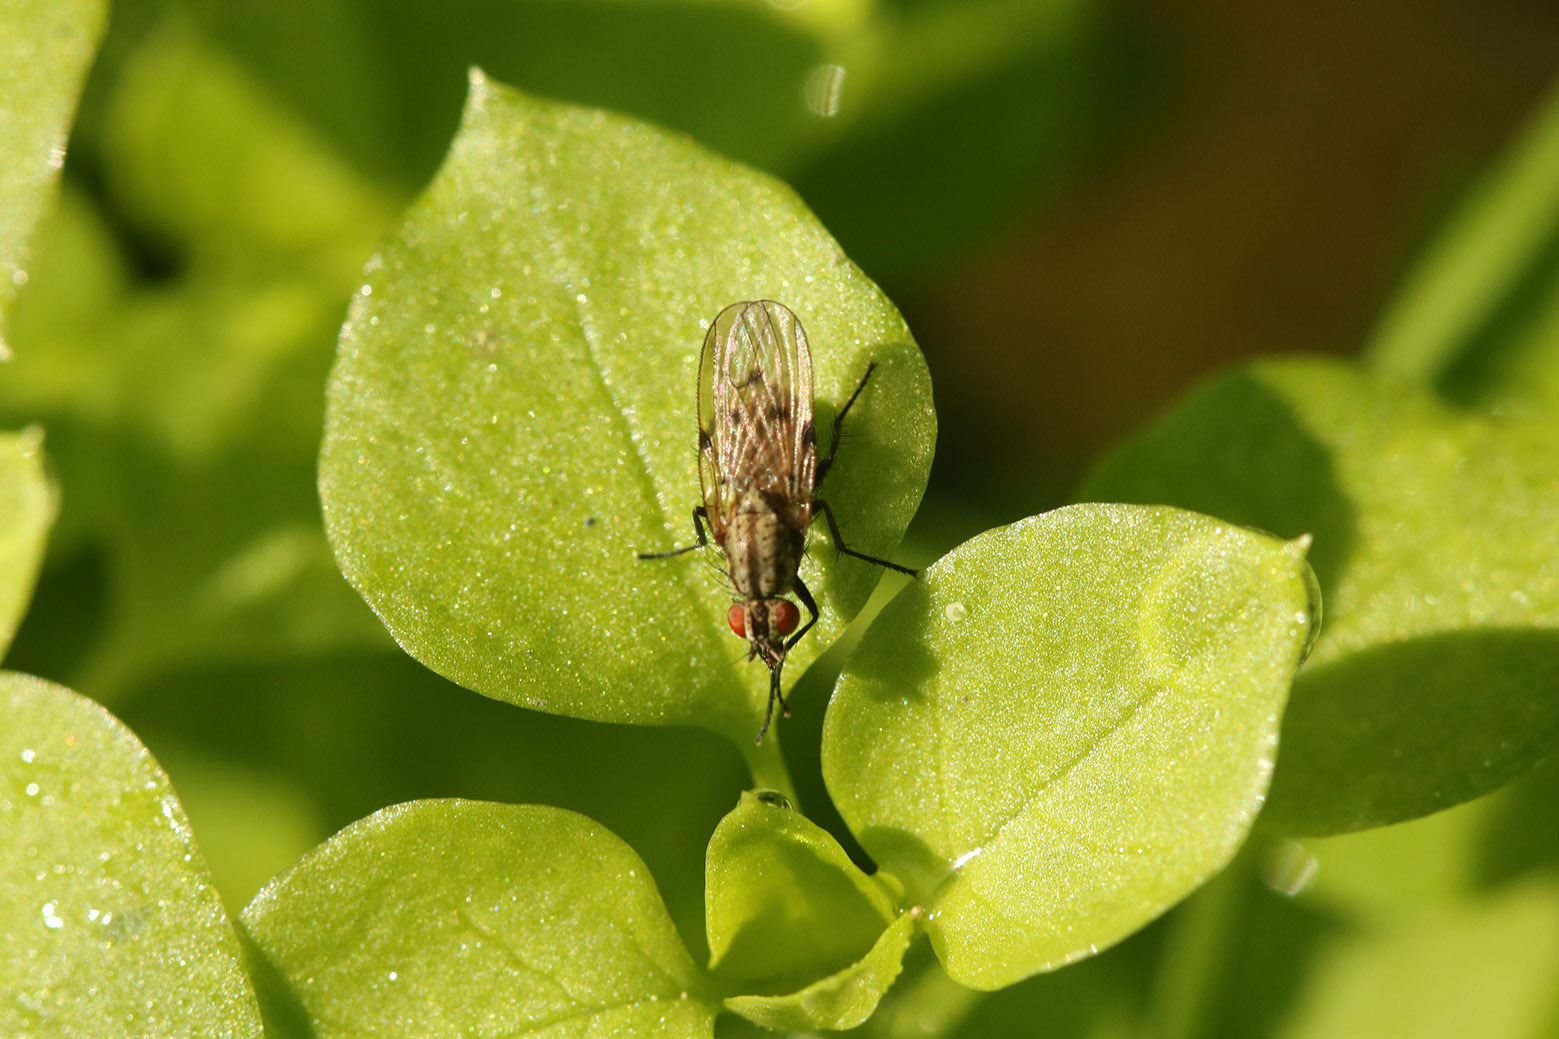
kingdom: Animalia
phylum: Arthropoda
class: Insecta
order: Diptera
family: Anthomyiidae
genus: Anthomyia
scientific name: Anthomyia punctipennis
